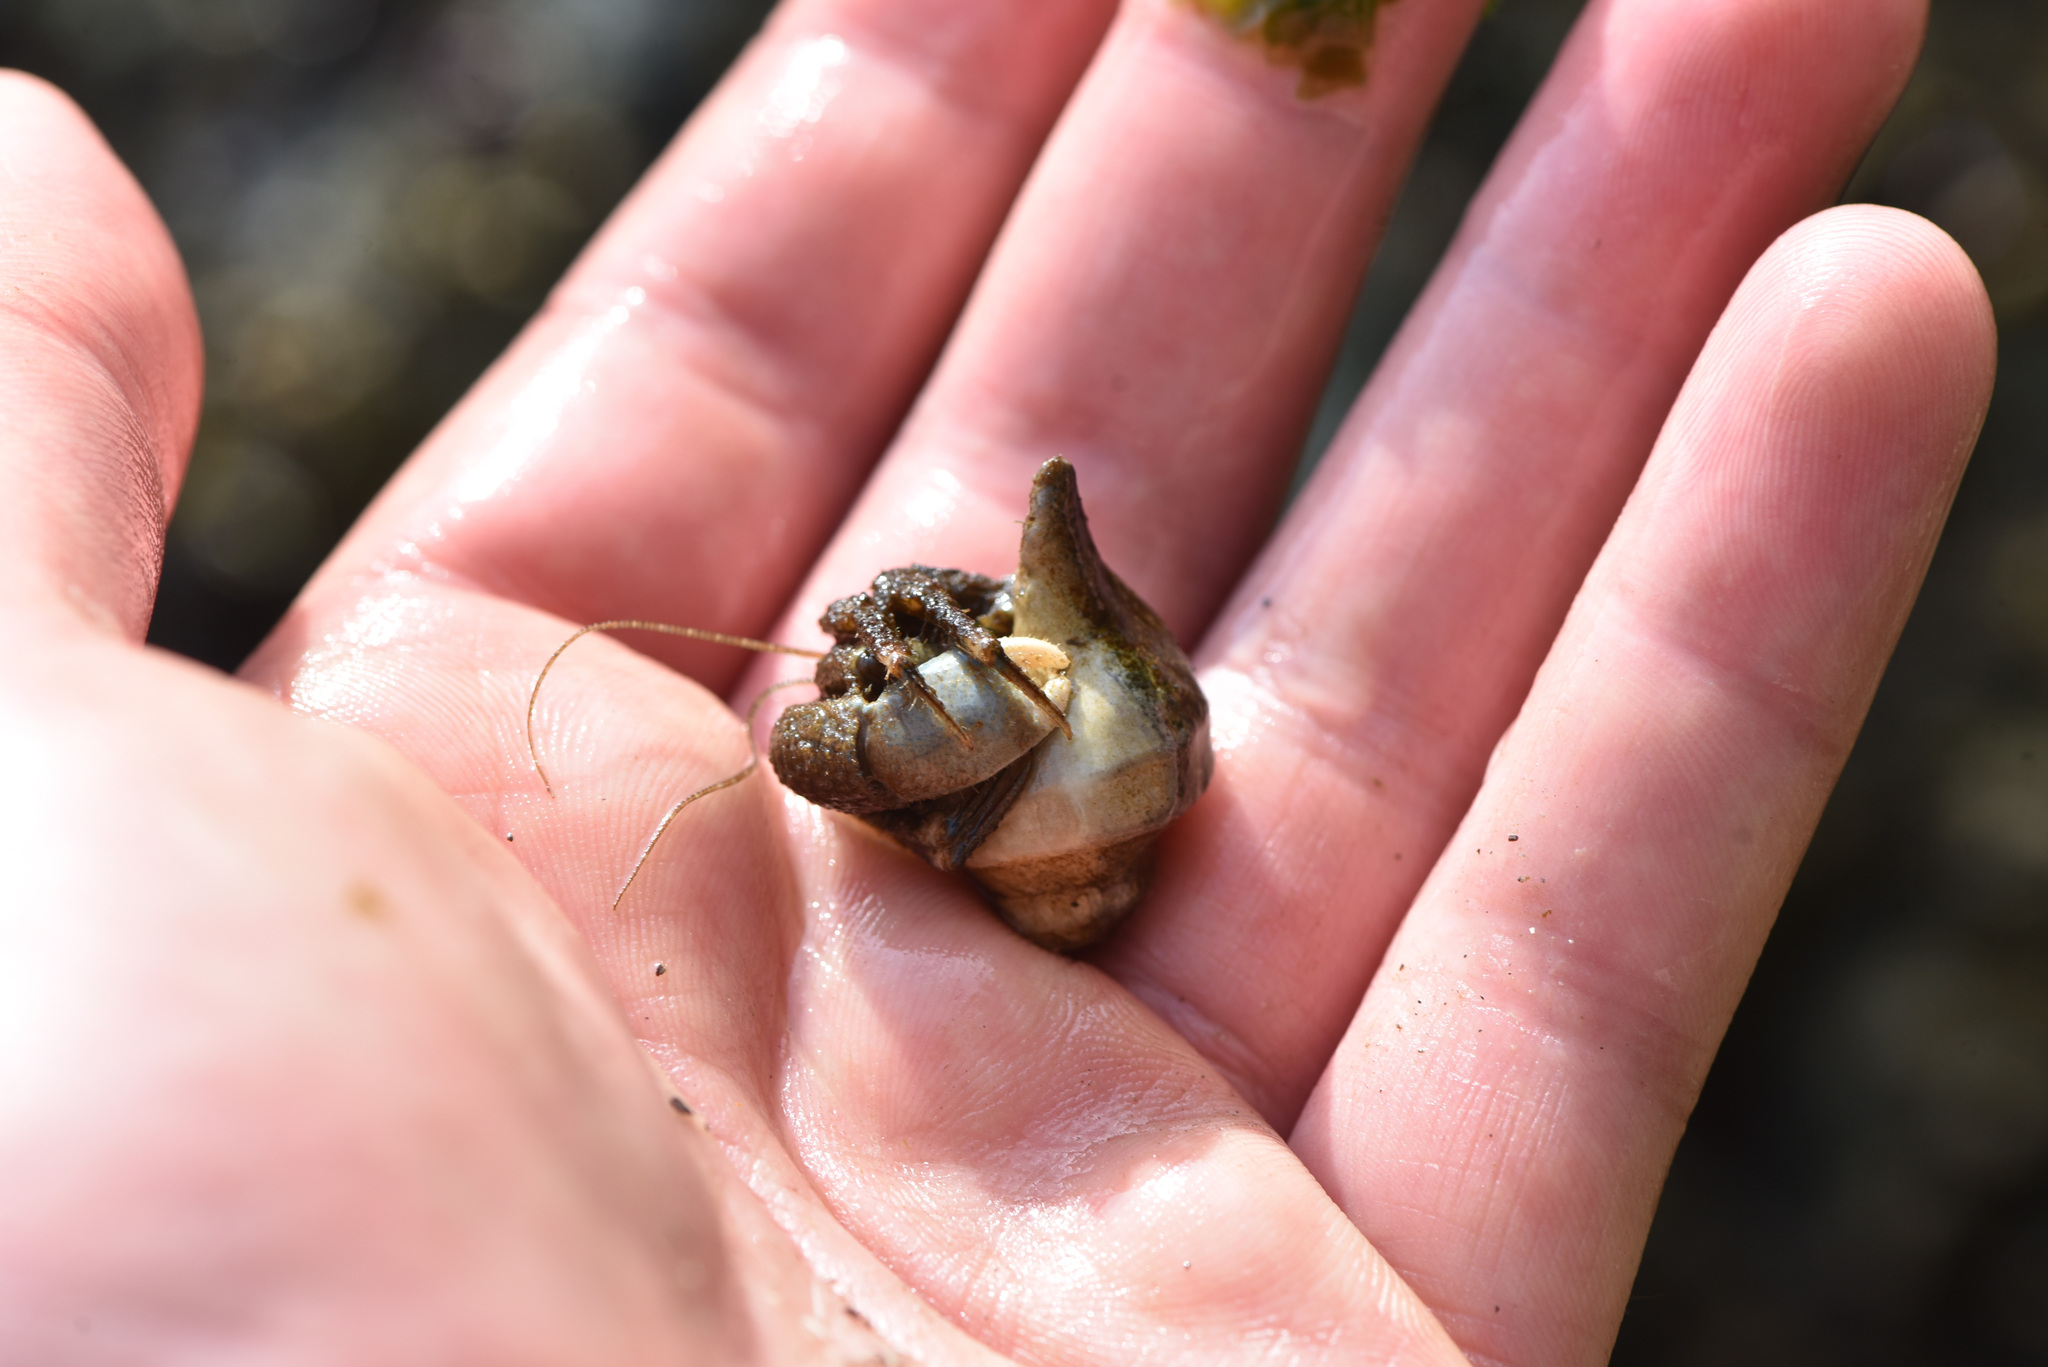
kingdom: Animalia
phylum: Arthropoda
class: Malacostraca
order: Decapoda
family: Paguridae
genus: Pagurus
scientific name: Pagurus hirsutiusculus
